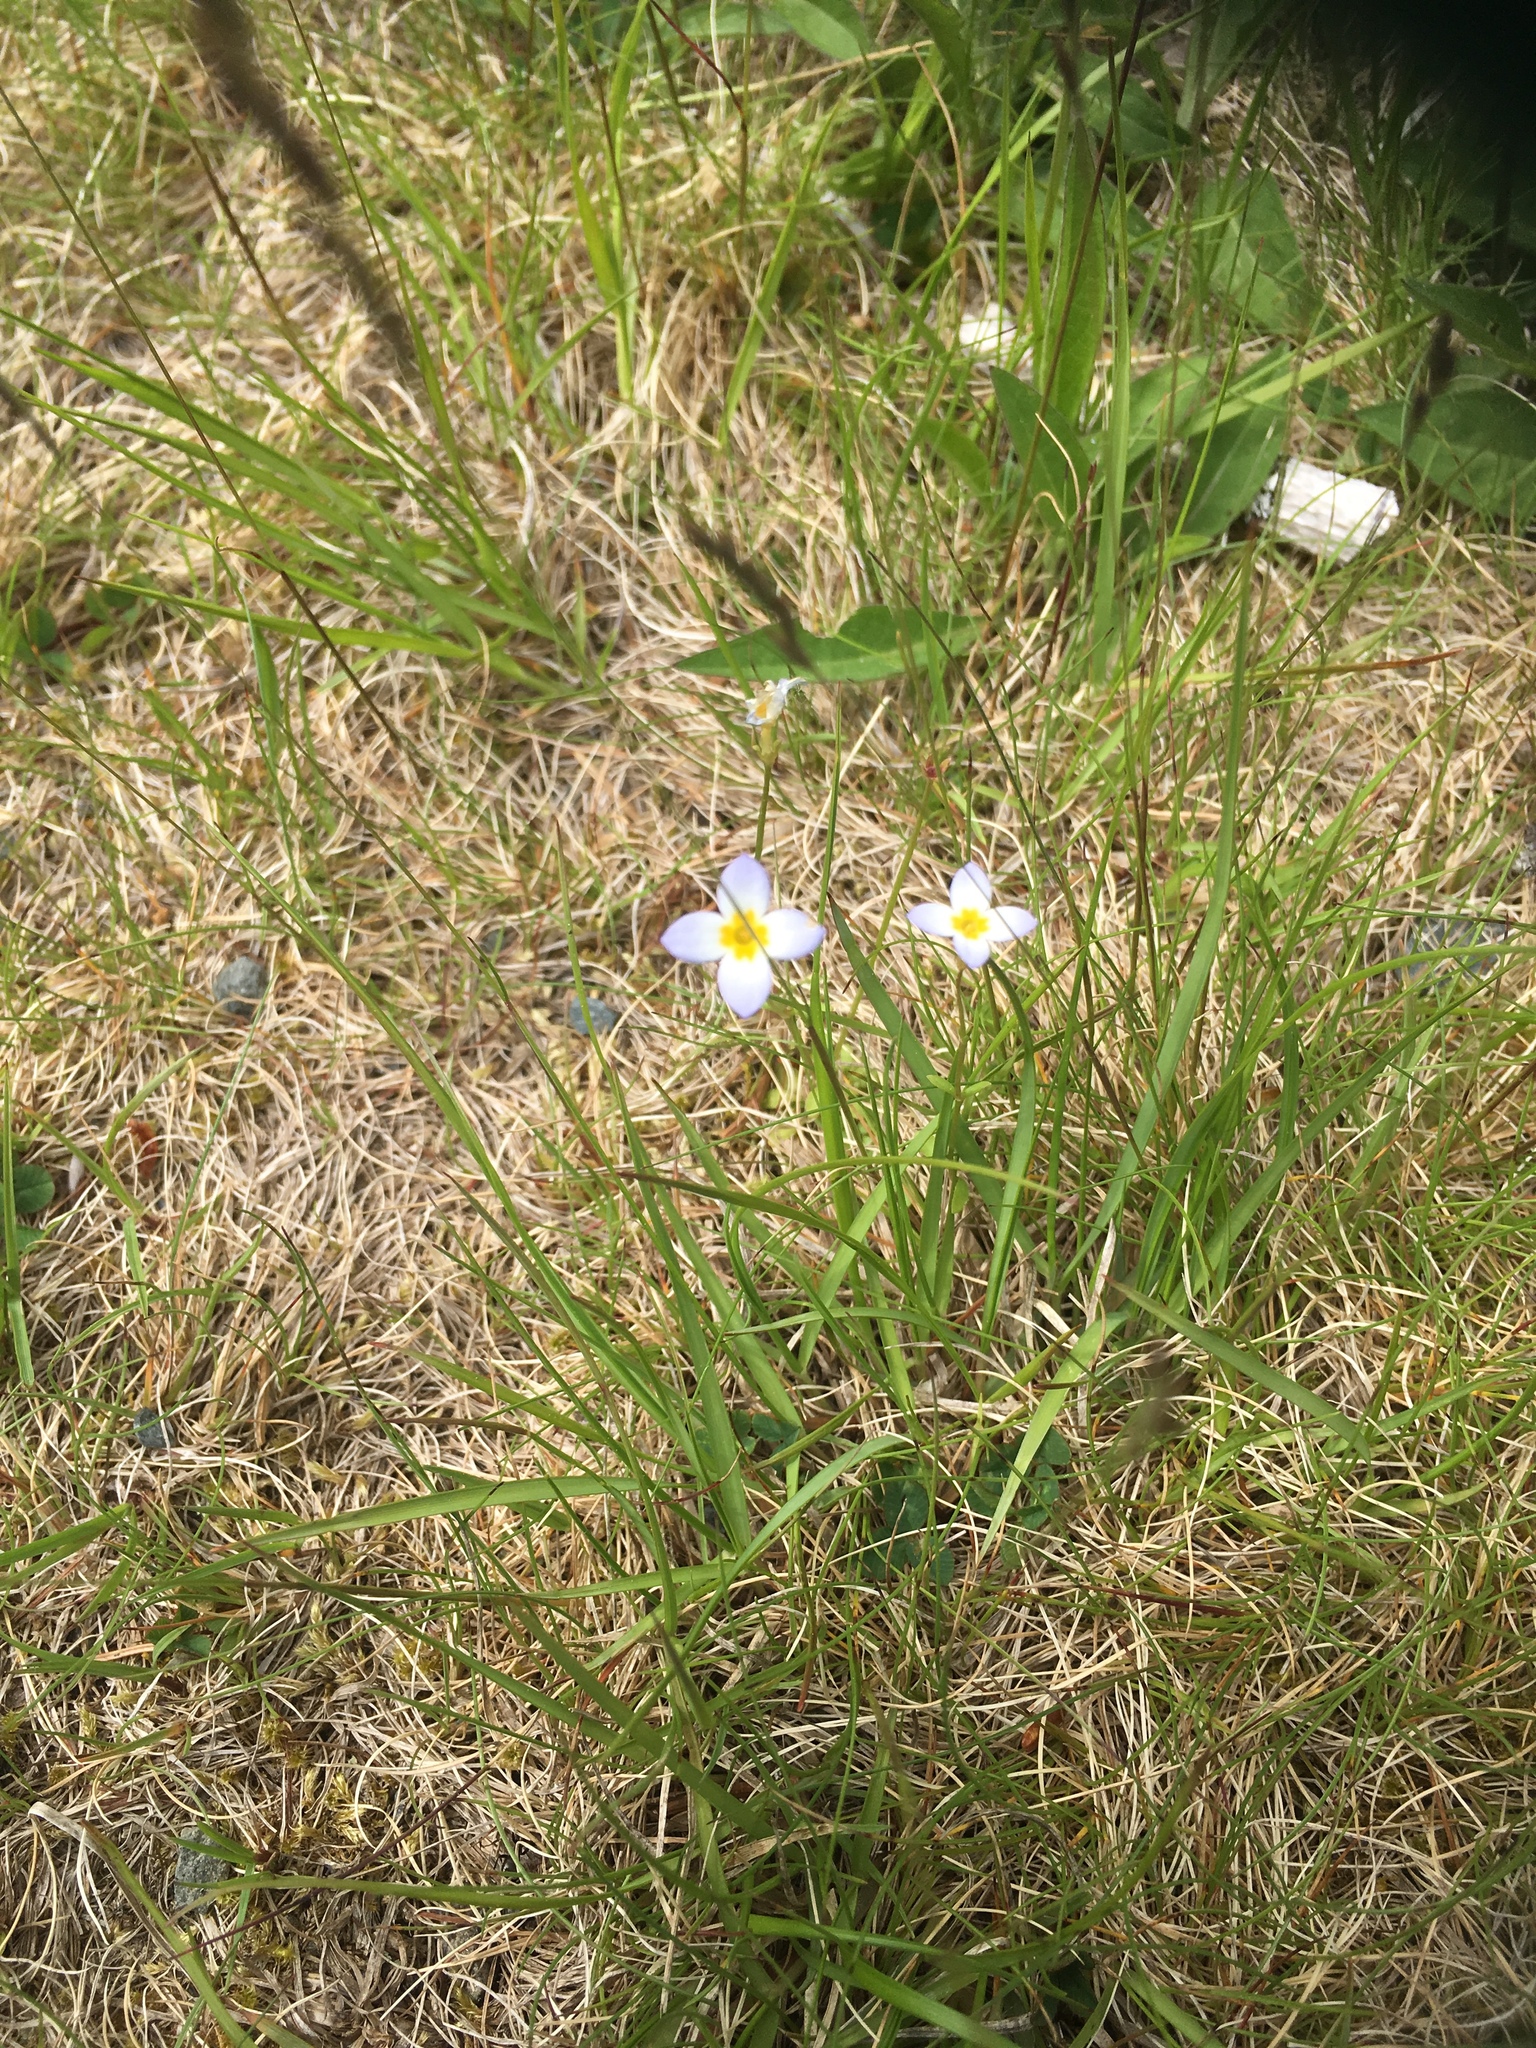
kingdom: Plantae
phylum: Tracheophyta
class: Magnoliopsida
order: Gentianales
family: Rubiaceae
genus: Houstonia
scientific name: Houstonia caerulea
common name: Bluets
